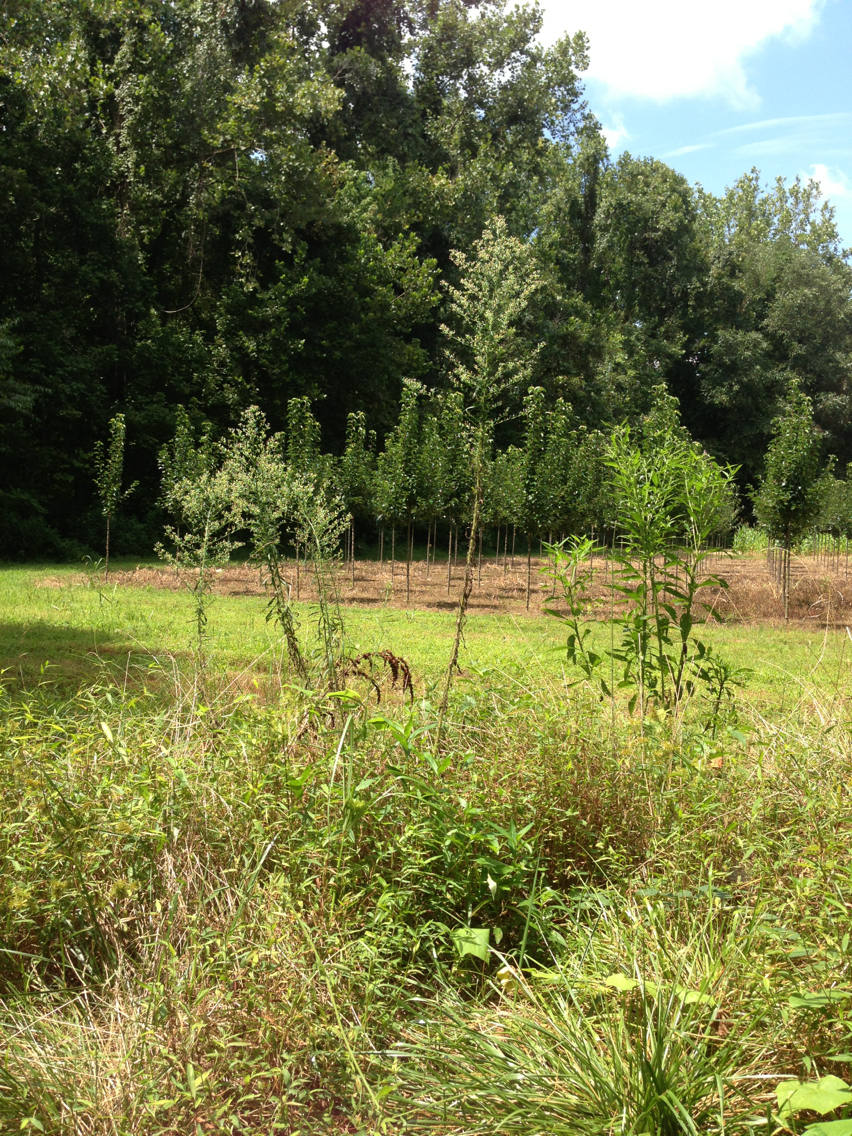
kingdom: Plantae
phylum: Tracheophyta
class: Magnoliopsida
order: Asterales
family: Asteraceae
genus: Erigeron
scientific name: Erigeron canadensis
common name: Canadian fleabane
